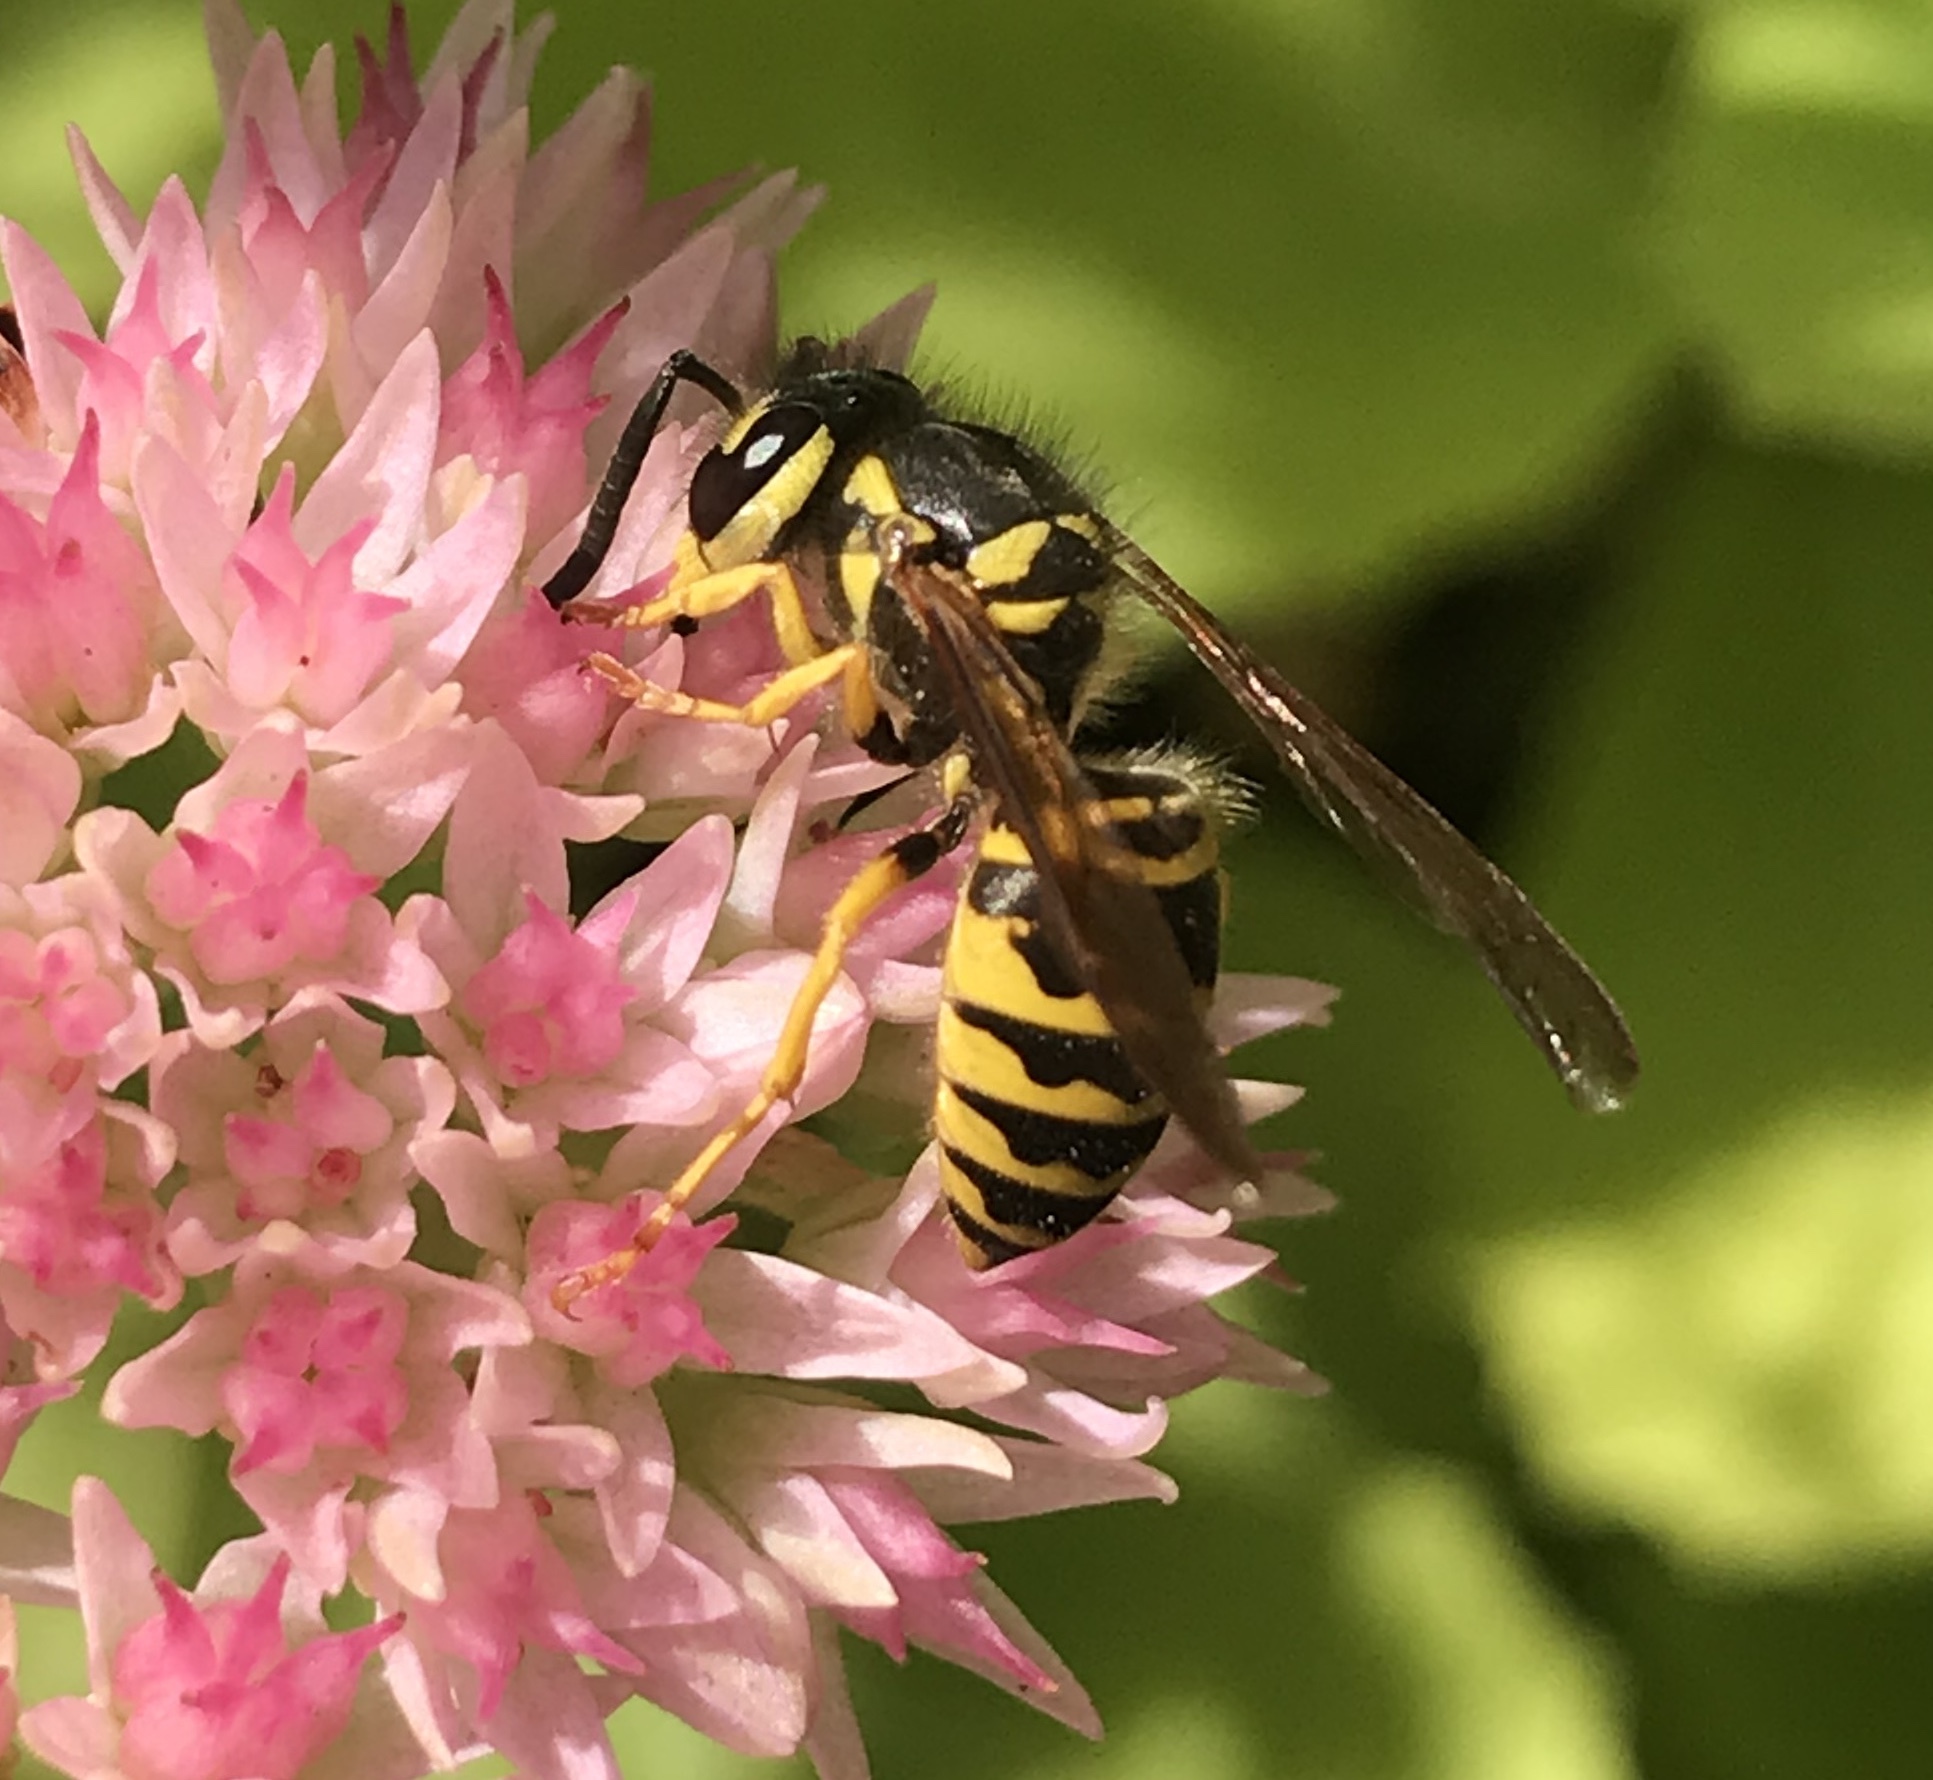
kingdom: Animalia
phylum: Arthropoda
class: Insecta
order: Hymenoptera
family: Vespidae
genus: Vespula
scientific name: Vespula maculifrons
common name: Eastern yellowjacket
